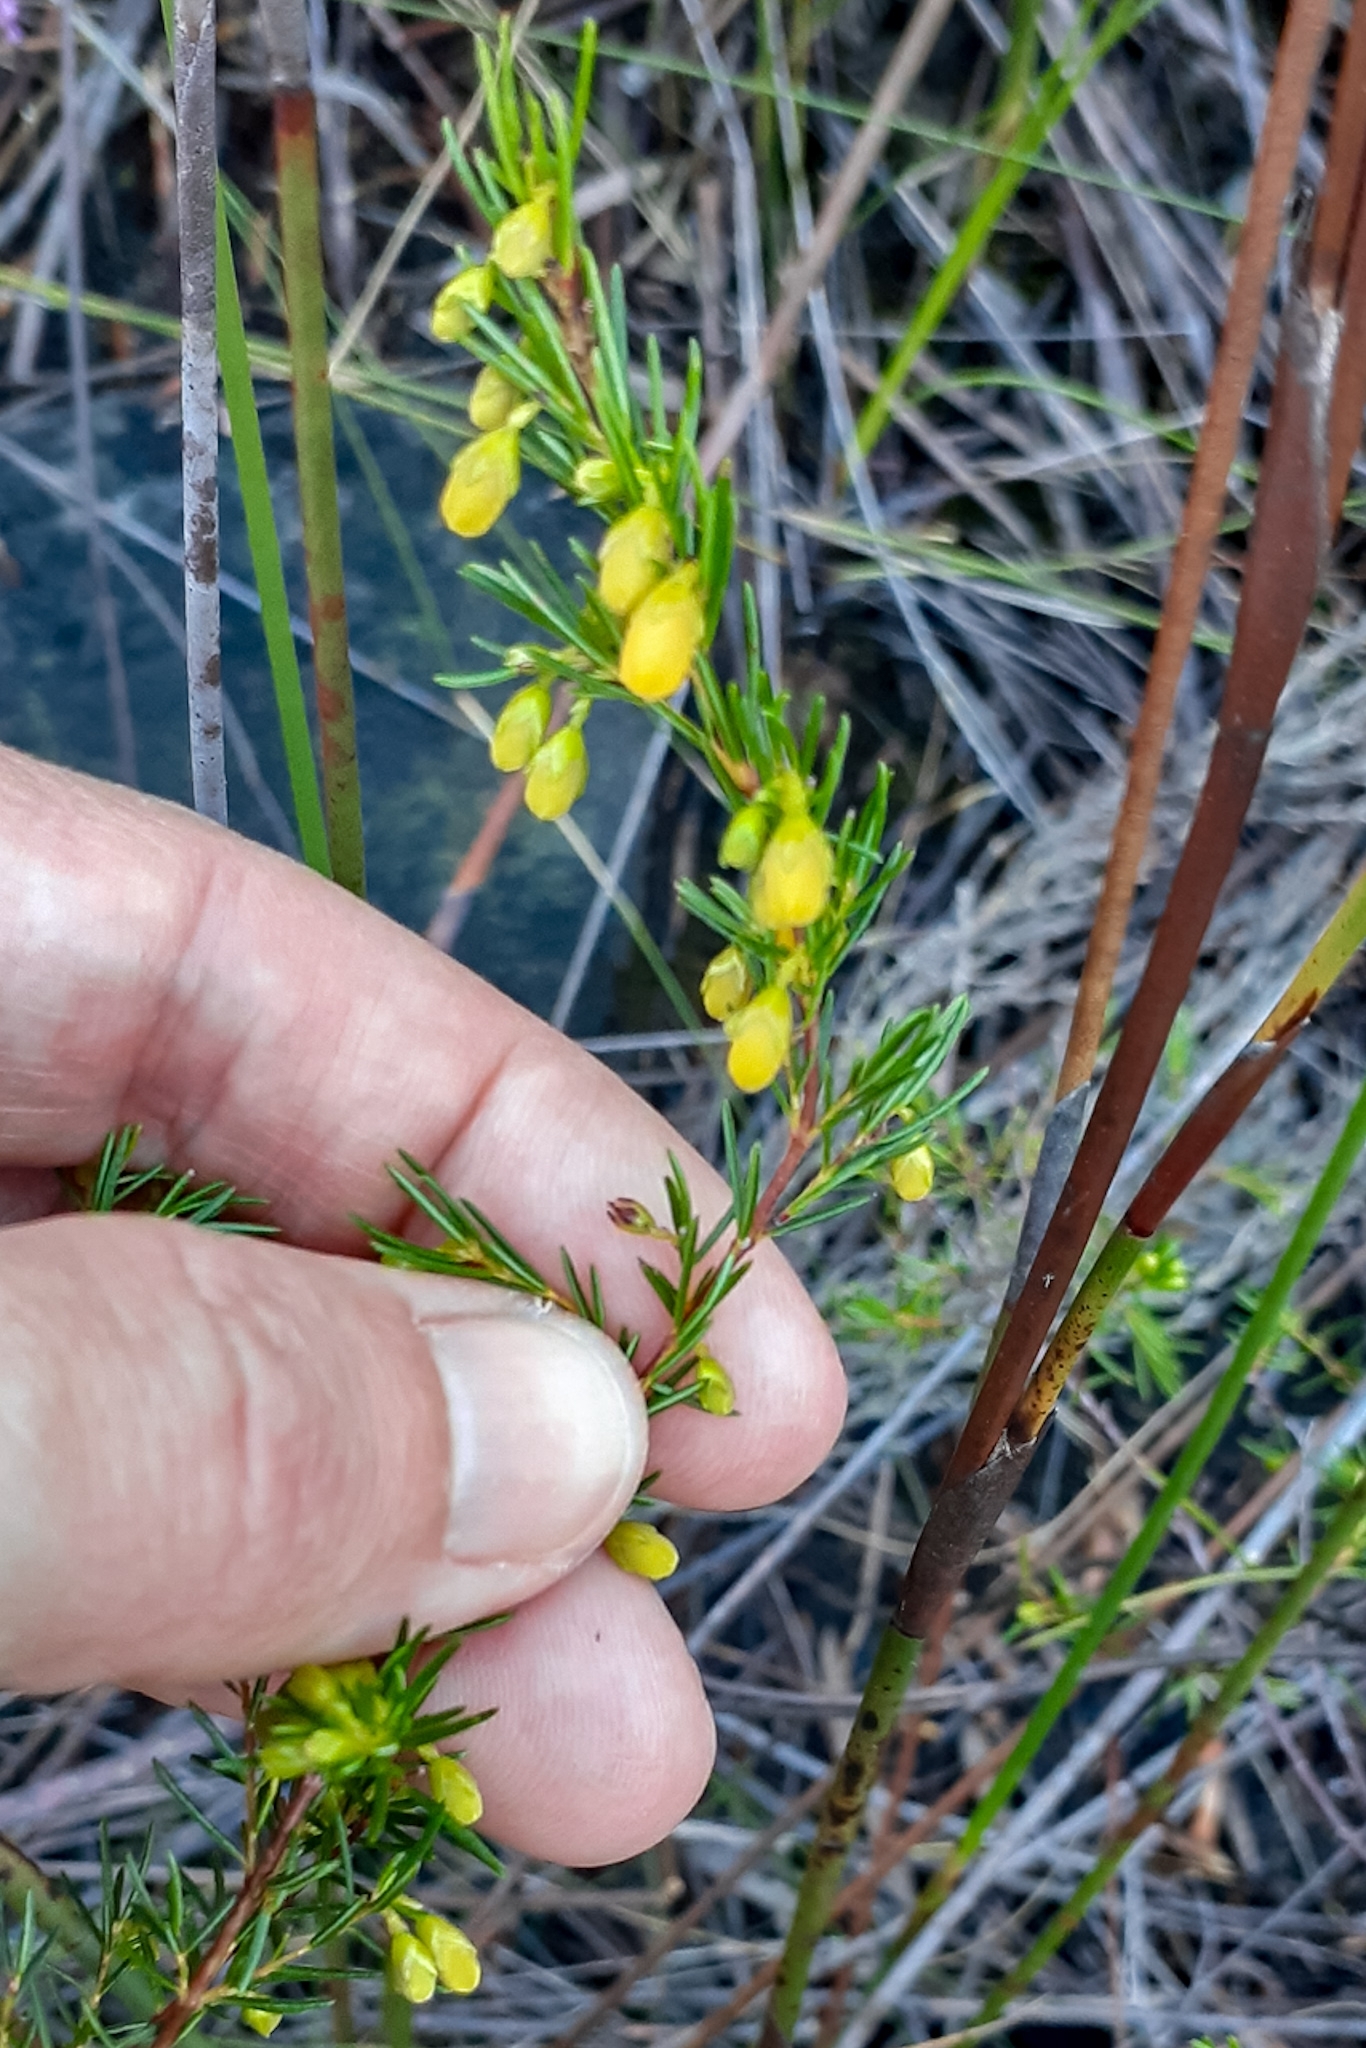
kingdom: Plantae
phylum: Tracheophyta
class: Magnoliopsida
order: Ericales
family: Ericaceae
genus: Erica
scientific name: Erica campanularis
